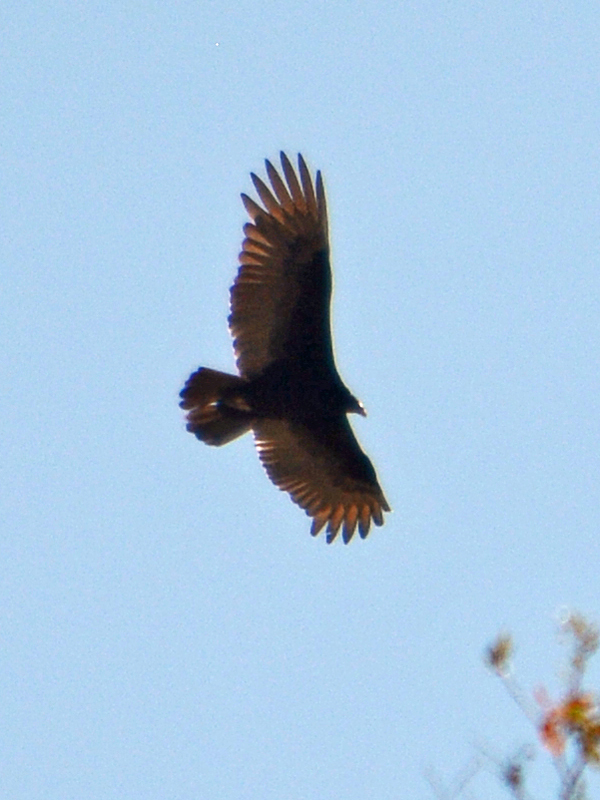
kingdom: Animalia
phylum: Chordata
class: Aves
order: Accipitriformes
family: Cathartidae
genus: Cathartes
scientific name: Cathartes aura
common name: Turkey vulture
